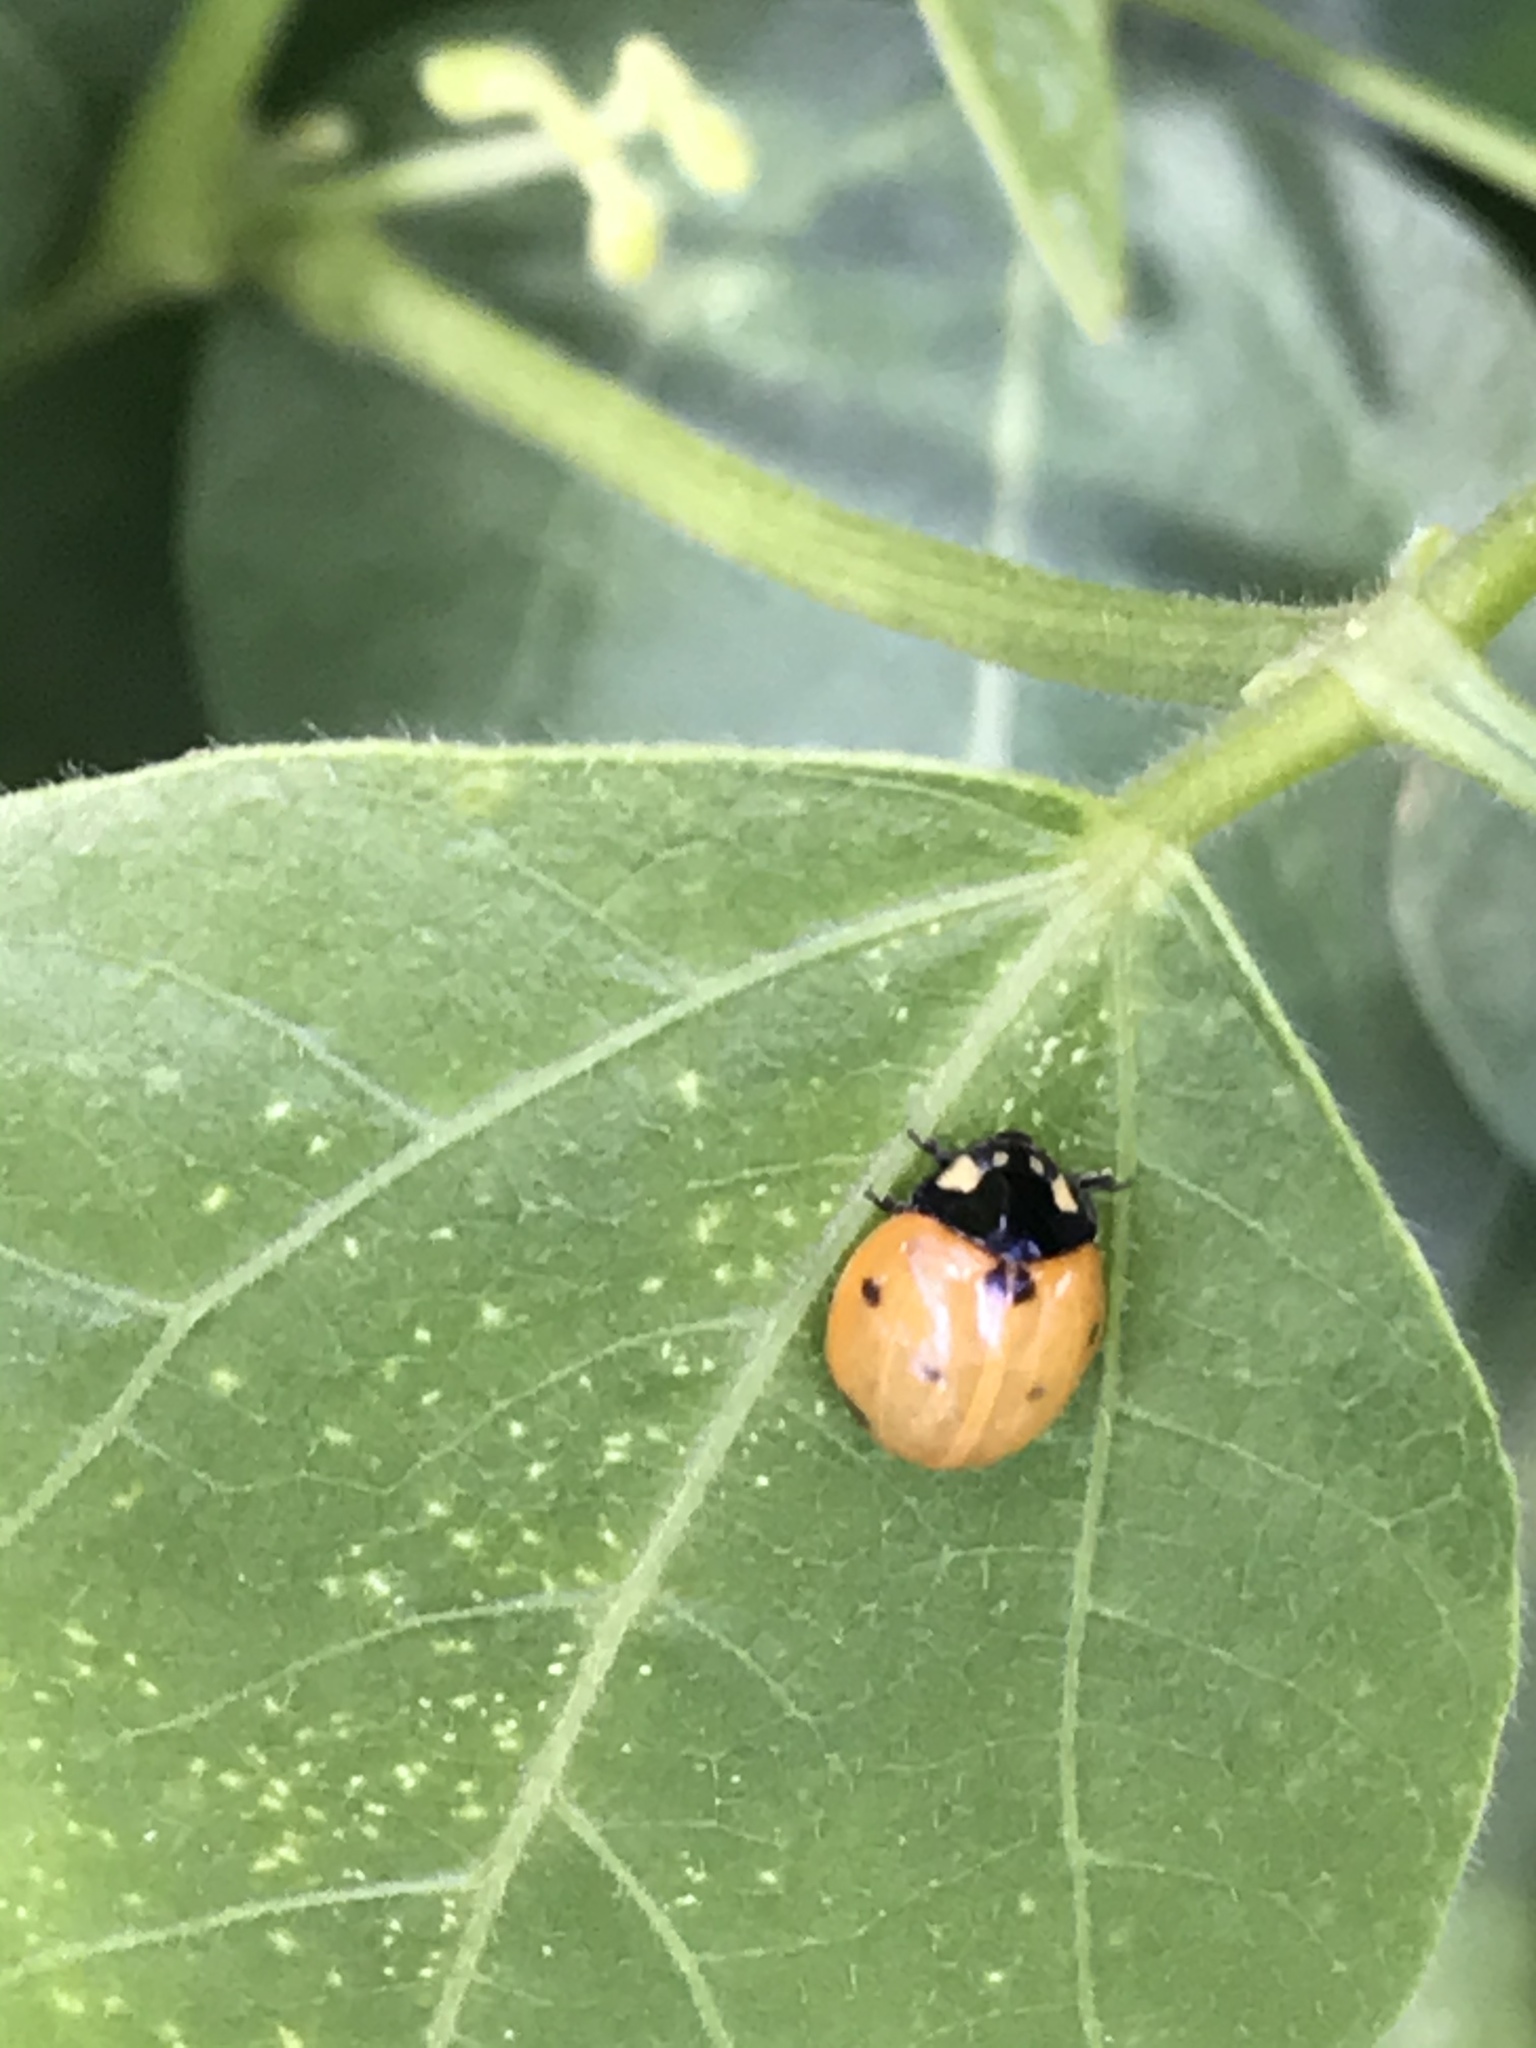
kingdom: Animalia
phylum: Arthropoda
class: Insecta
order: Coleoptera
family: Coccinellidae
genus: Coccinella
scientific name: Coccinella septempunctata
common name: Sevenspotted lady beetle
